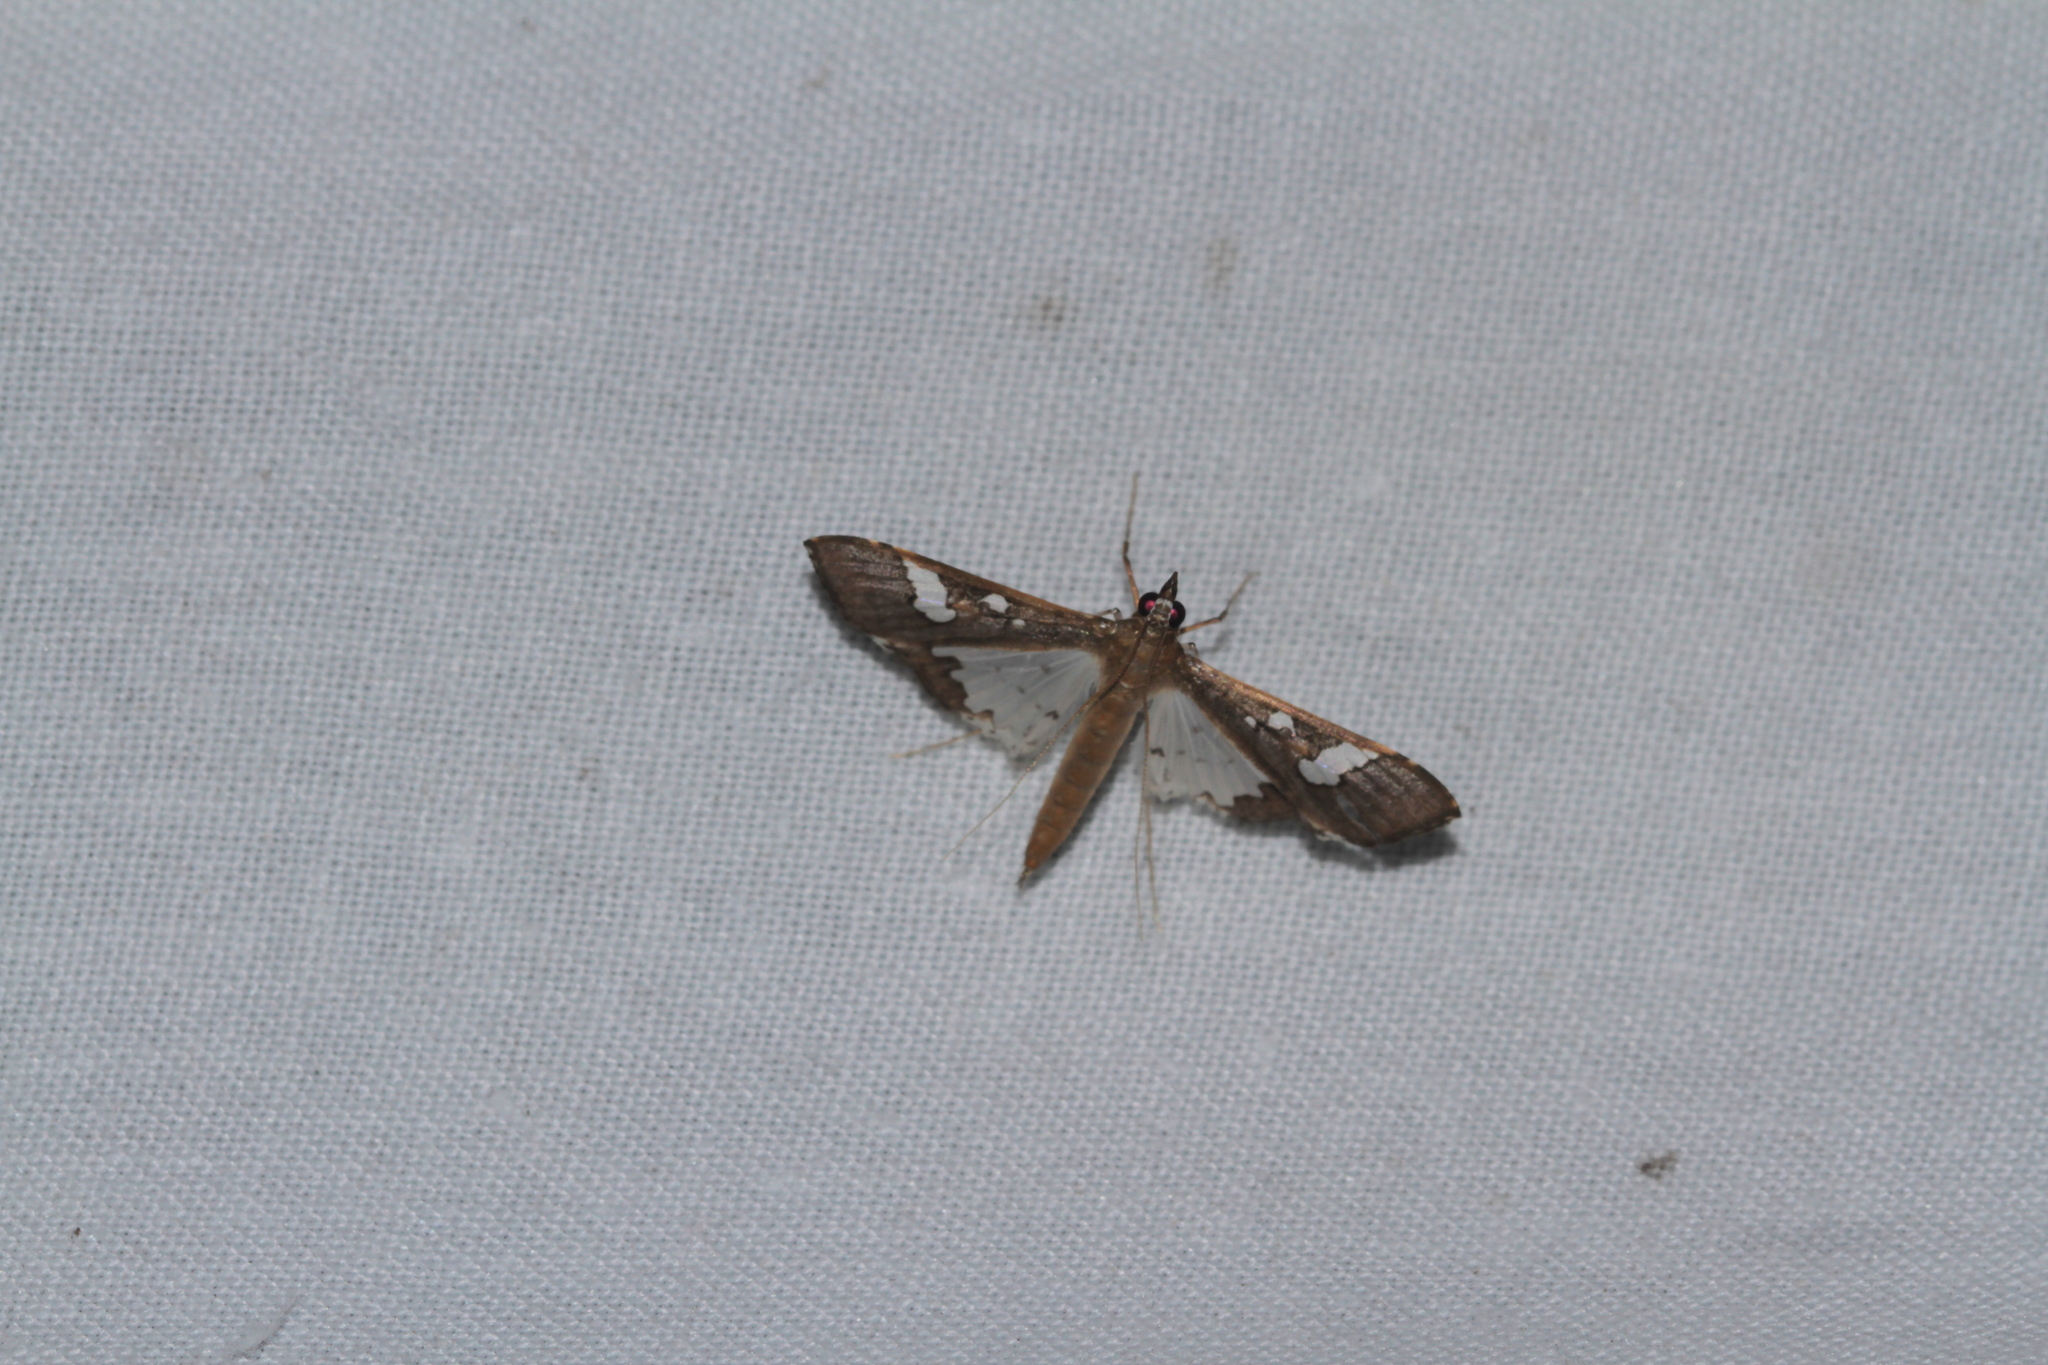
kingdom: Animalia
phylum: Arthropoda
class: Insecta
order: Lepidoptera
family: Crambidae
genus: Maruca
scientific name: Maruca vitrata
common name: Maruca pod borer
